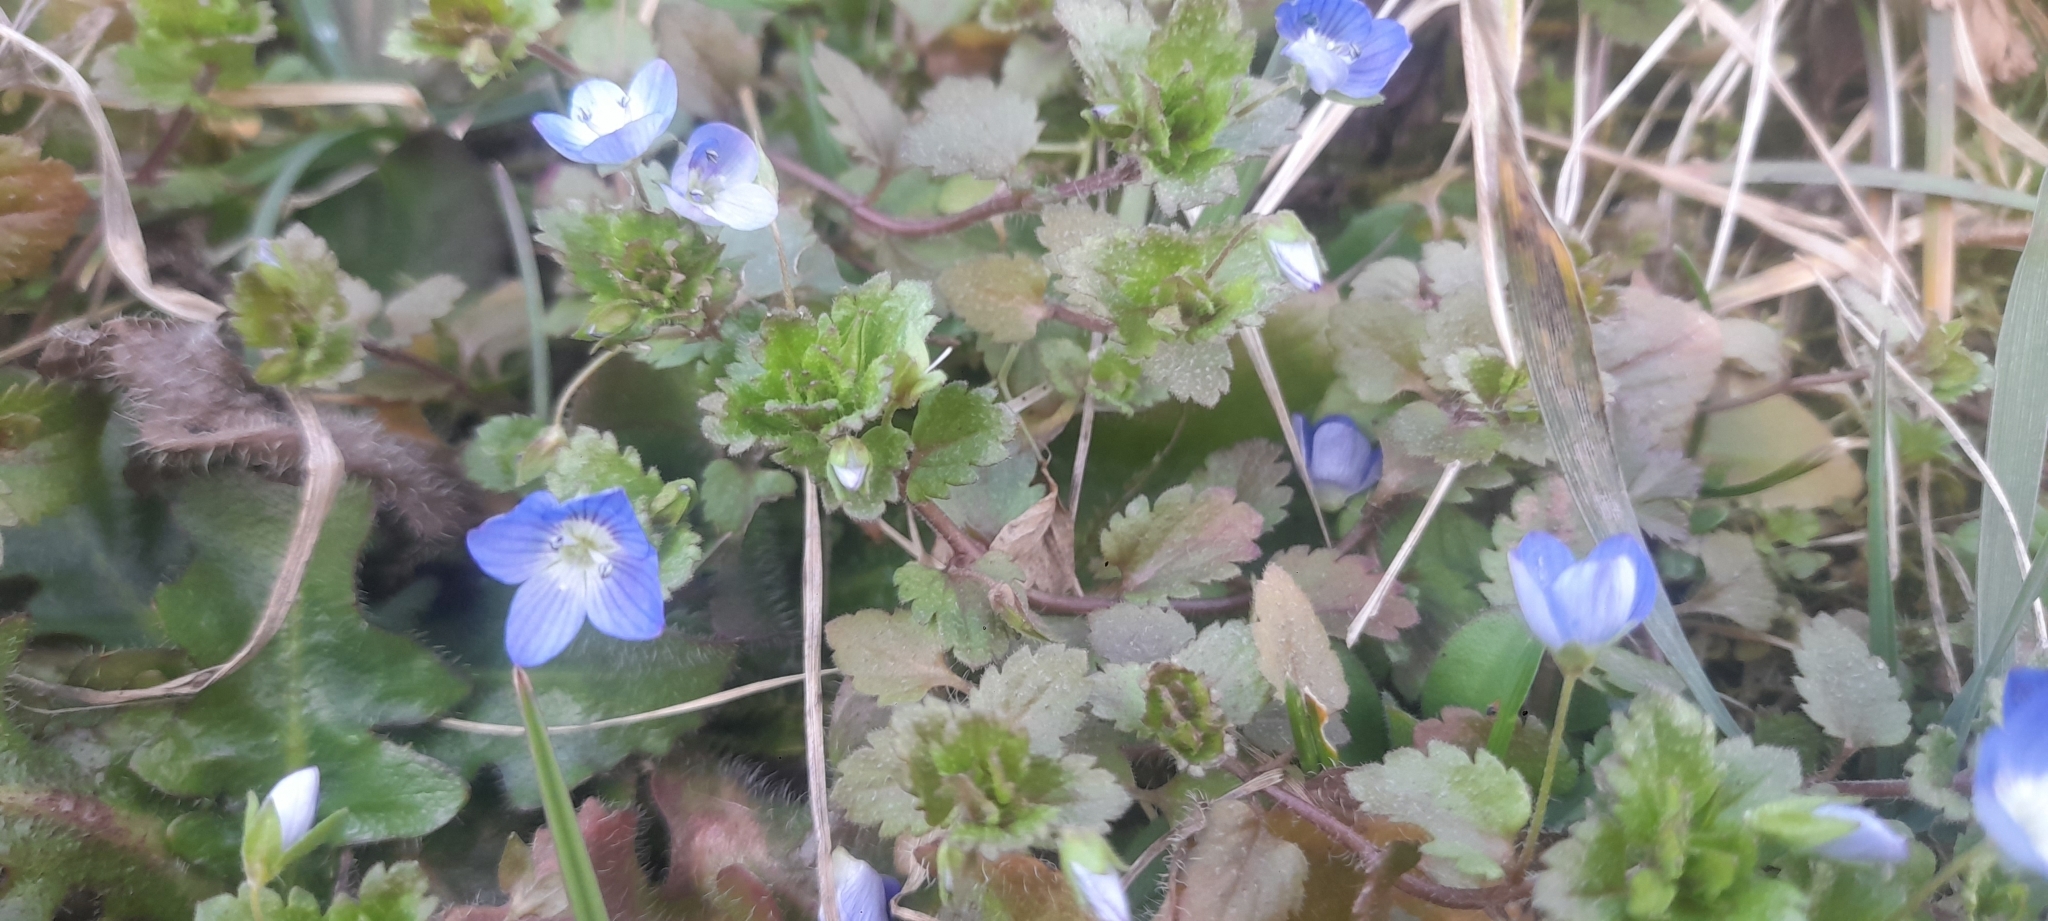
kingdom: Plantae
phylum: Tracheophyta
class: Magnoliopsida
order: Lamiales
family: Plantaginaceae
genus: Veronica
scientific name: Veronica persica
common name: Common field-speedwell
